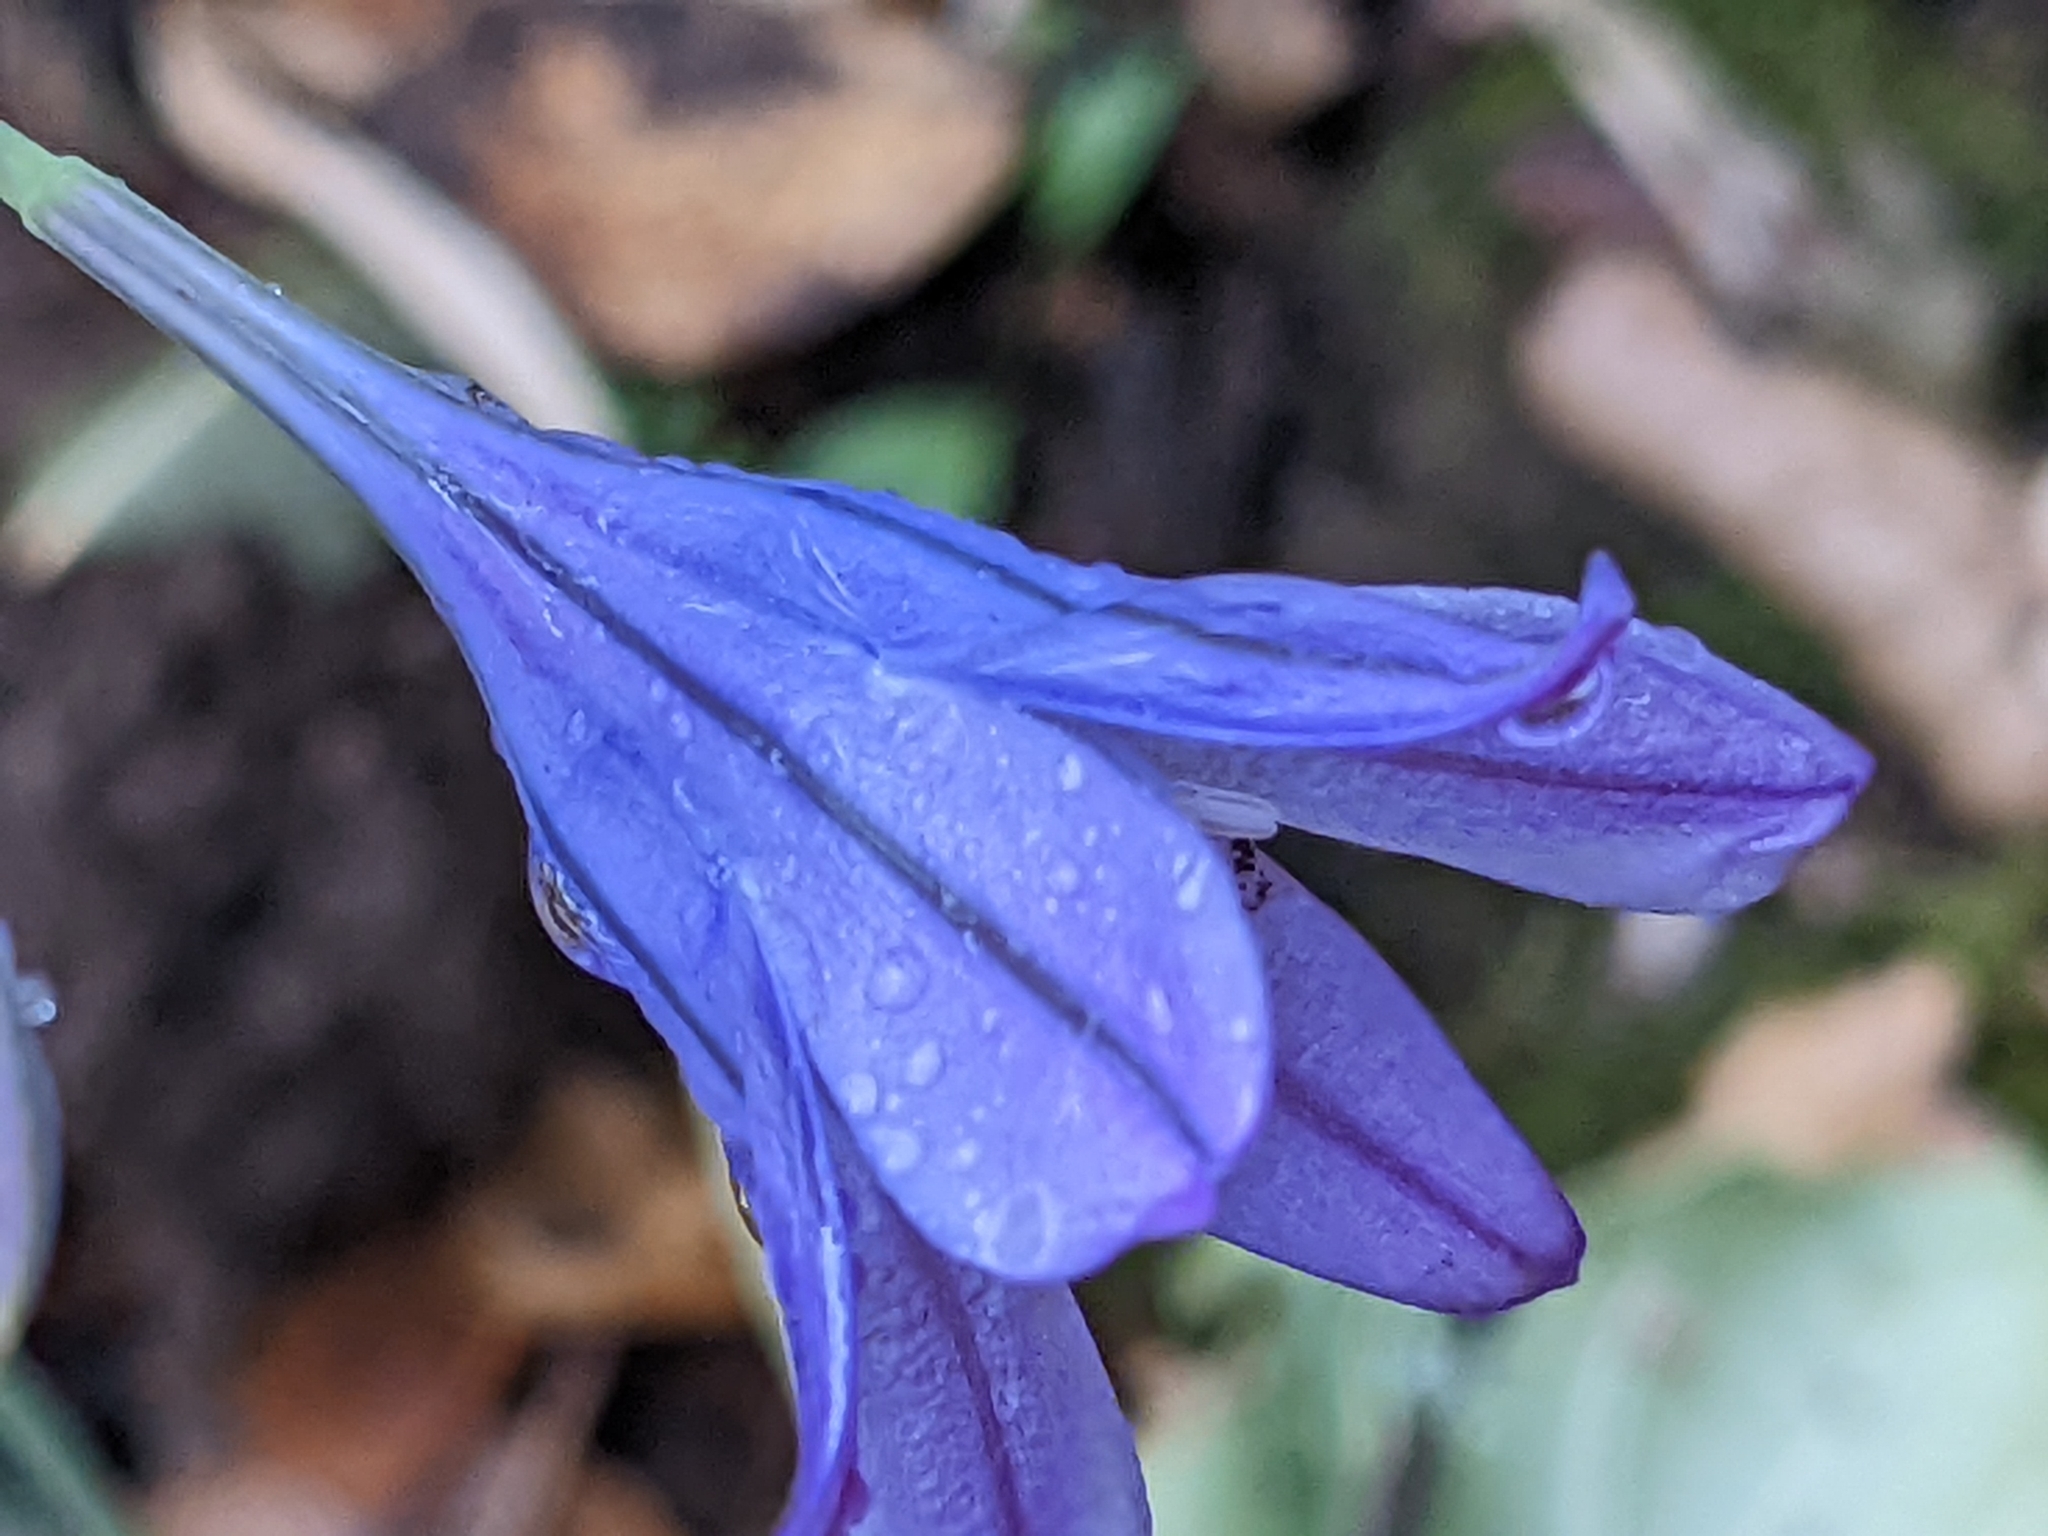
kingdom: Plantae
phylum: Tracheophyta
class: Liliopsida
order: Asparagales
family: Asparagaceae
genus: Triteleia
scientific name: Triteleia laxa
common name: Triplet-lily
